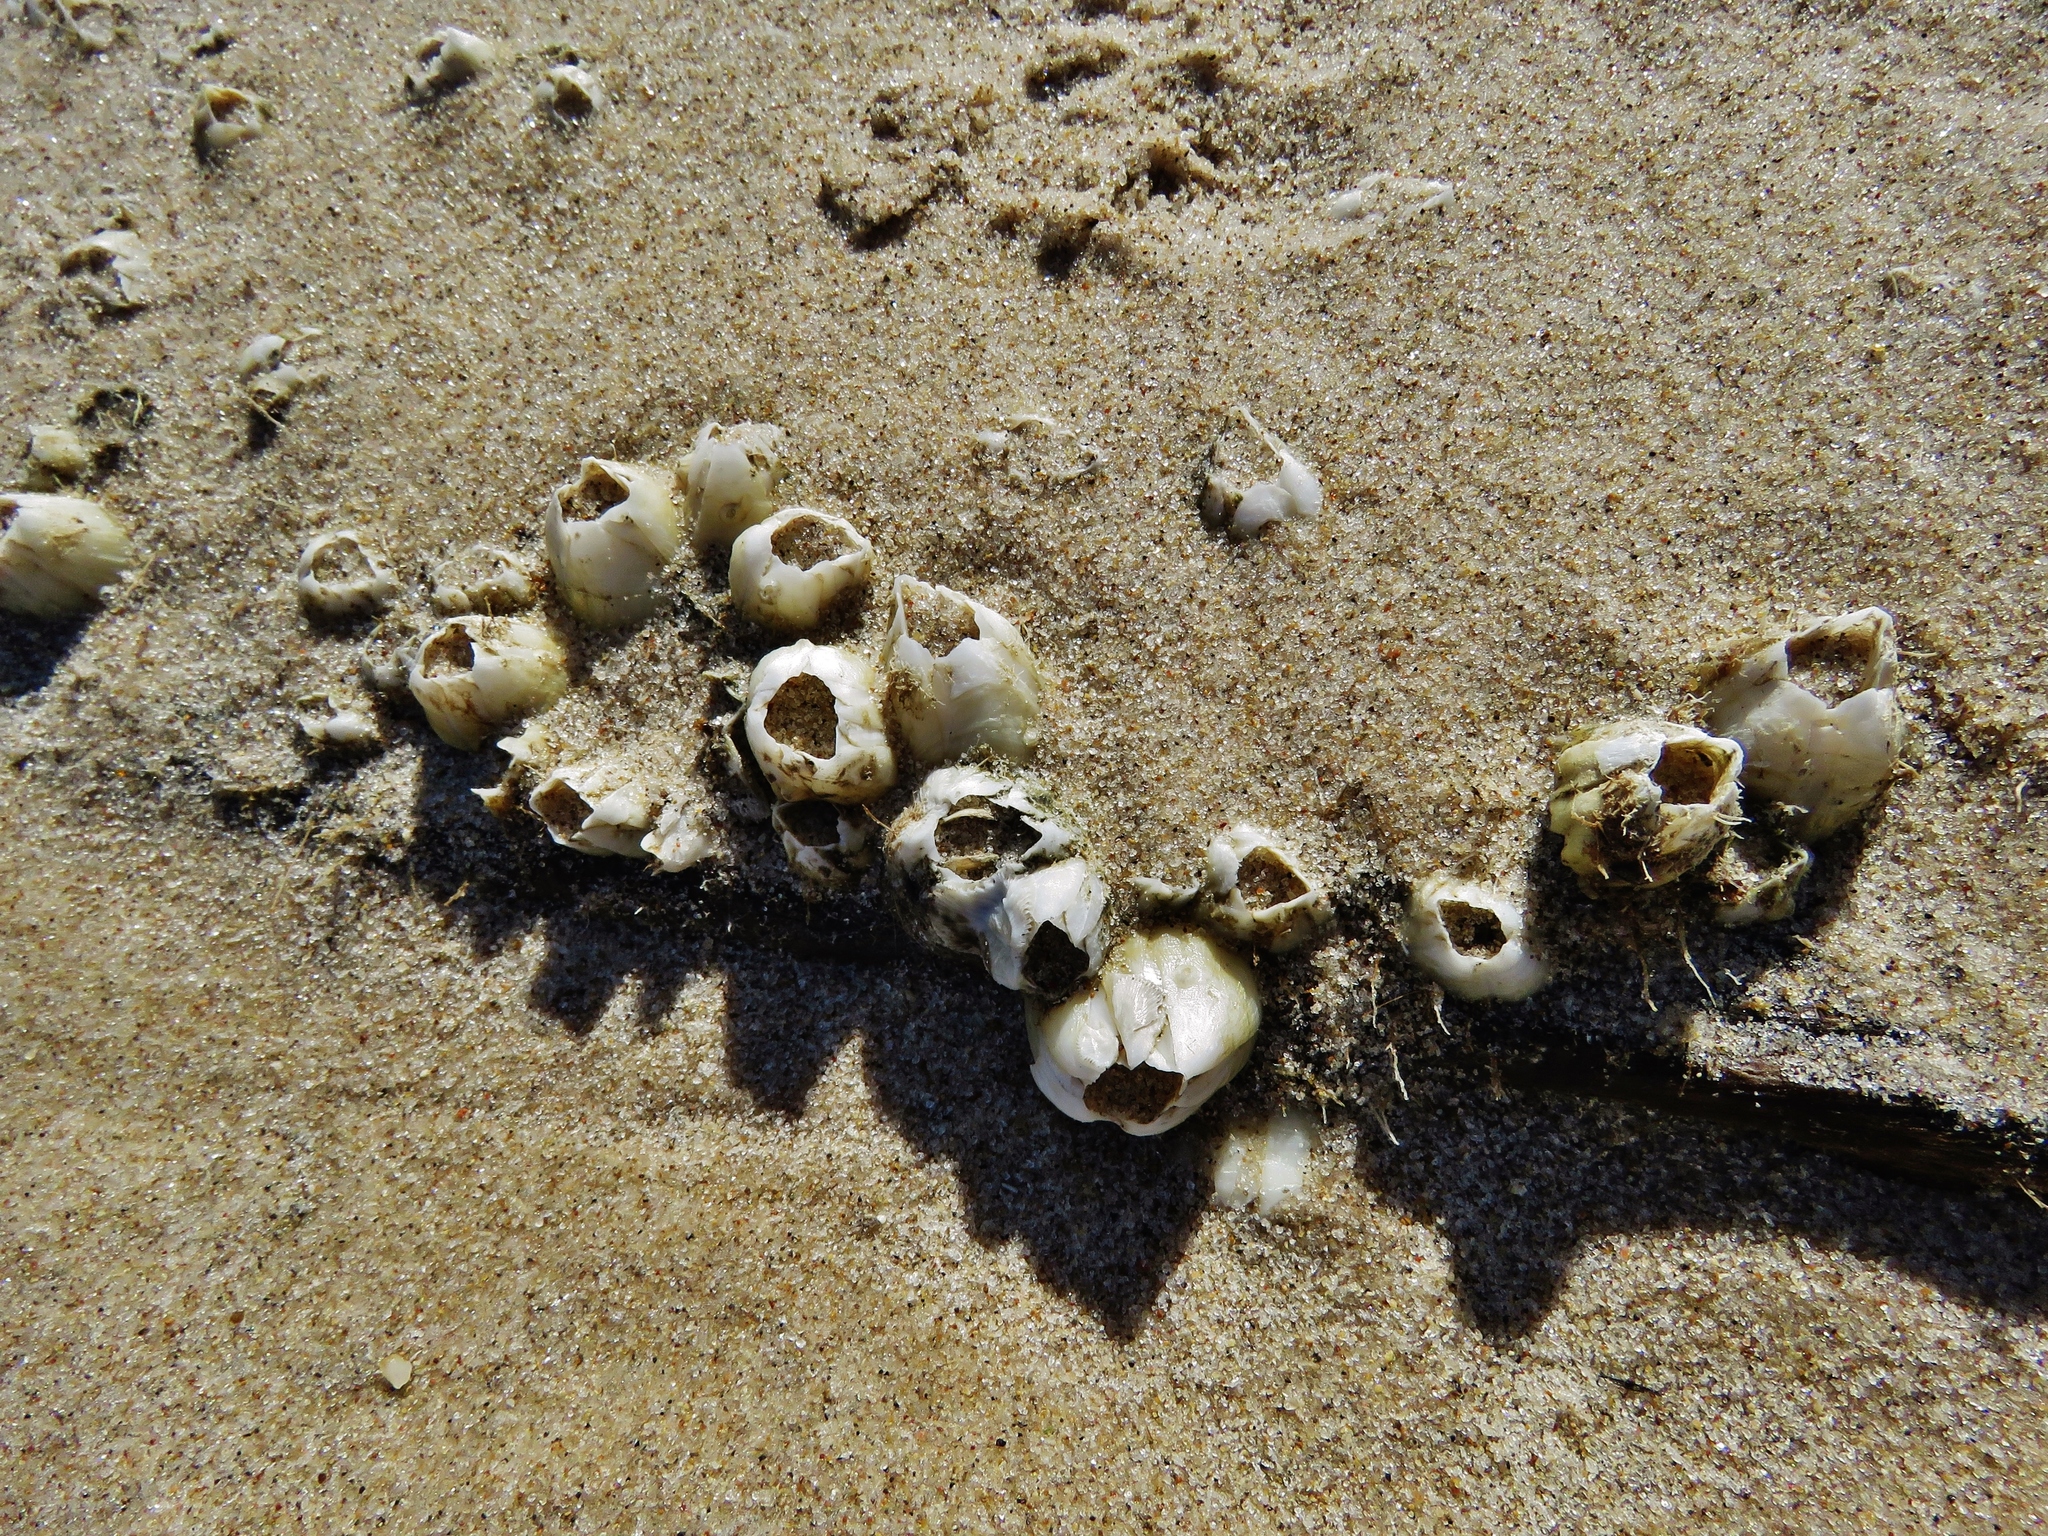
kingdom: Animalia
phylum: Arthropoda
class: Maxillopoda
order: Sessilia
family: Balanidae
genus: Amphibalanus
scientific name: Amphibalanus subalbidus
